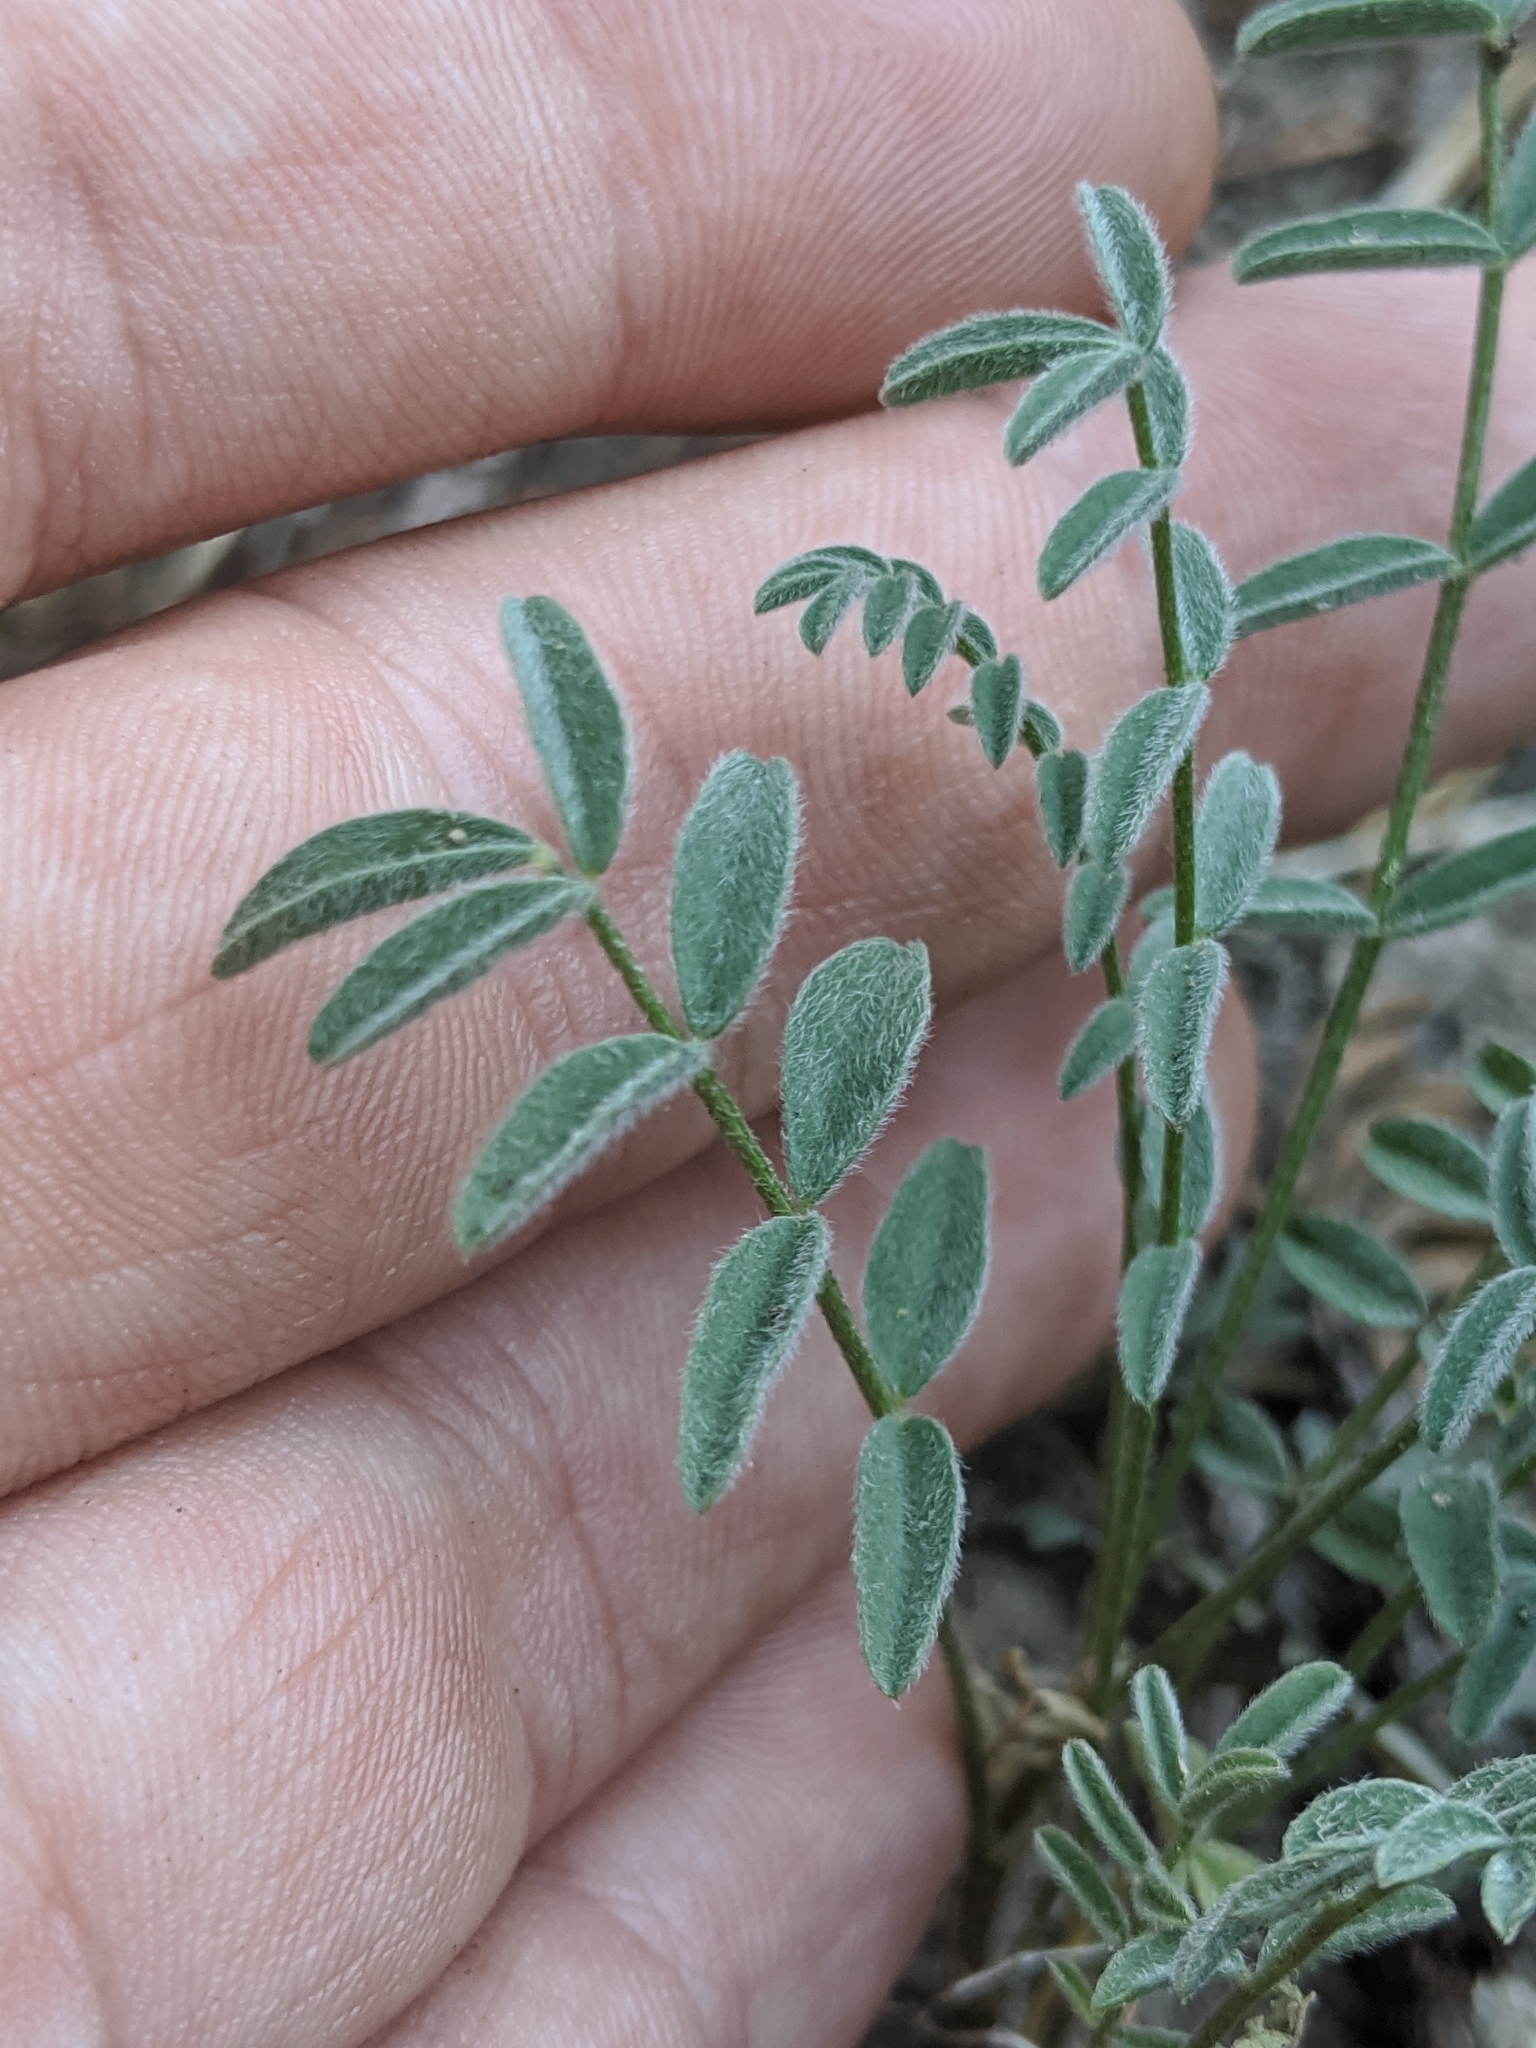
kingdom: Plantae
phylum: Tracheophyta
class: Magnoliopsida
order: Fabales
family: Fabaceae
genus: Astragalus
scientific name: Astragalus bolanderi
